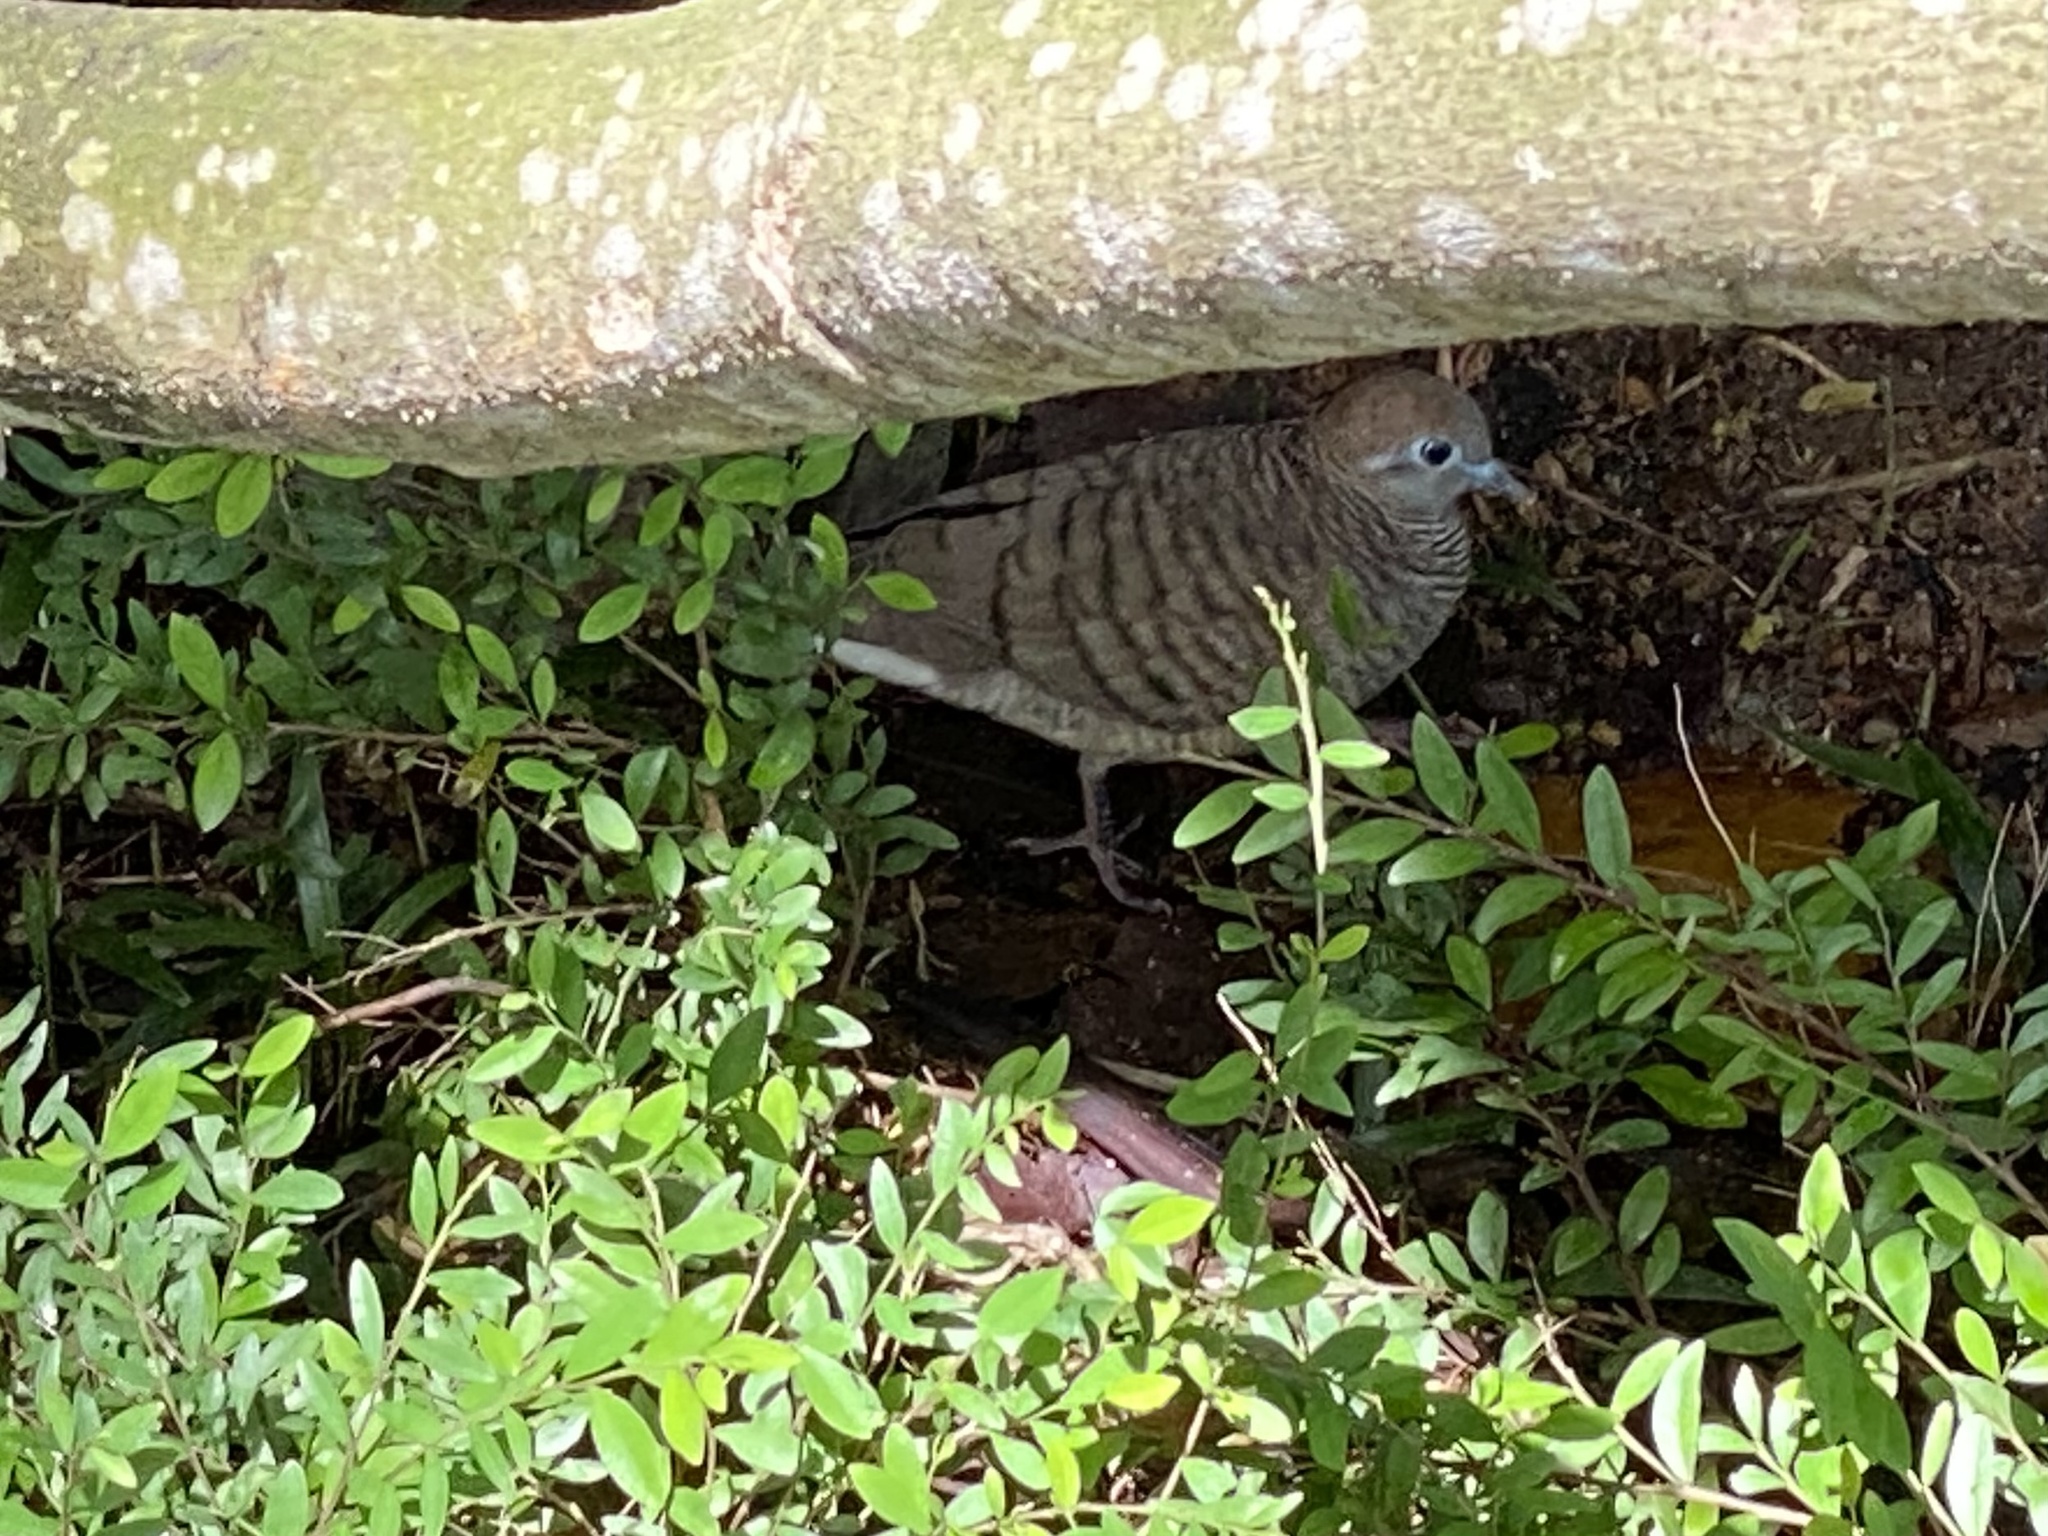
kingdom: Animalia
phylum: Chordata
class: Aves
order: Columbiformes
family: Columbidae
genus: Geopelia
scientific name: Geopelia striata
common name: Zebra dove
